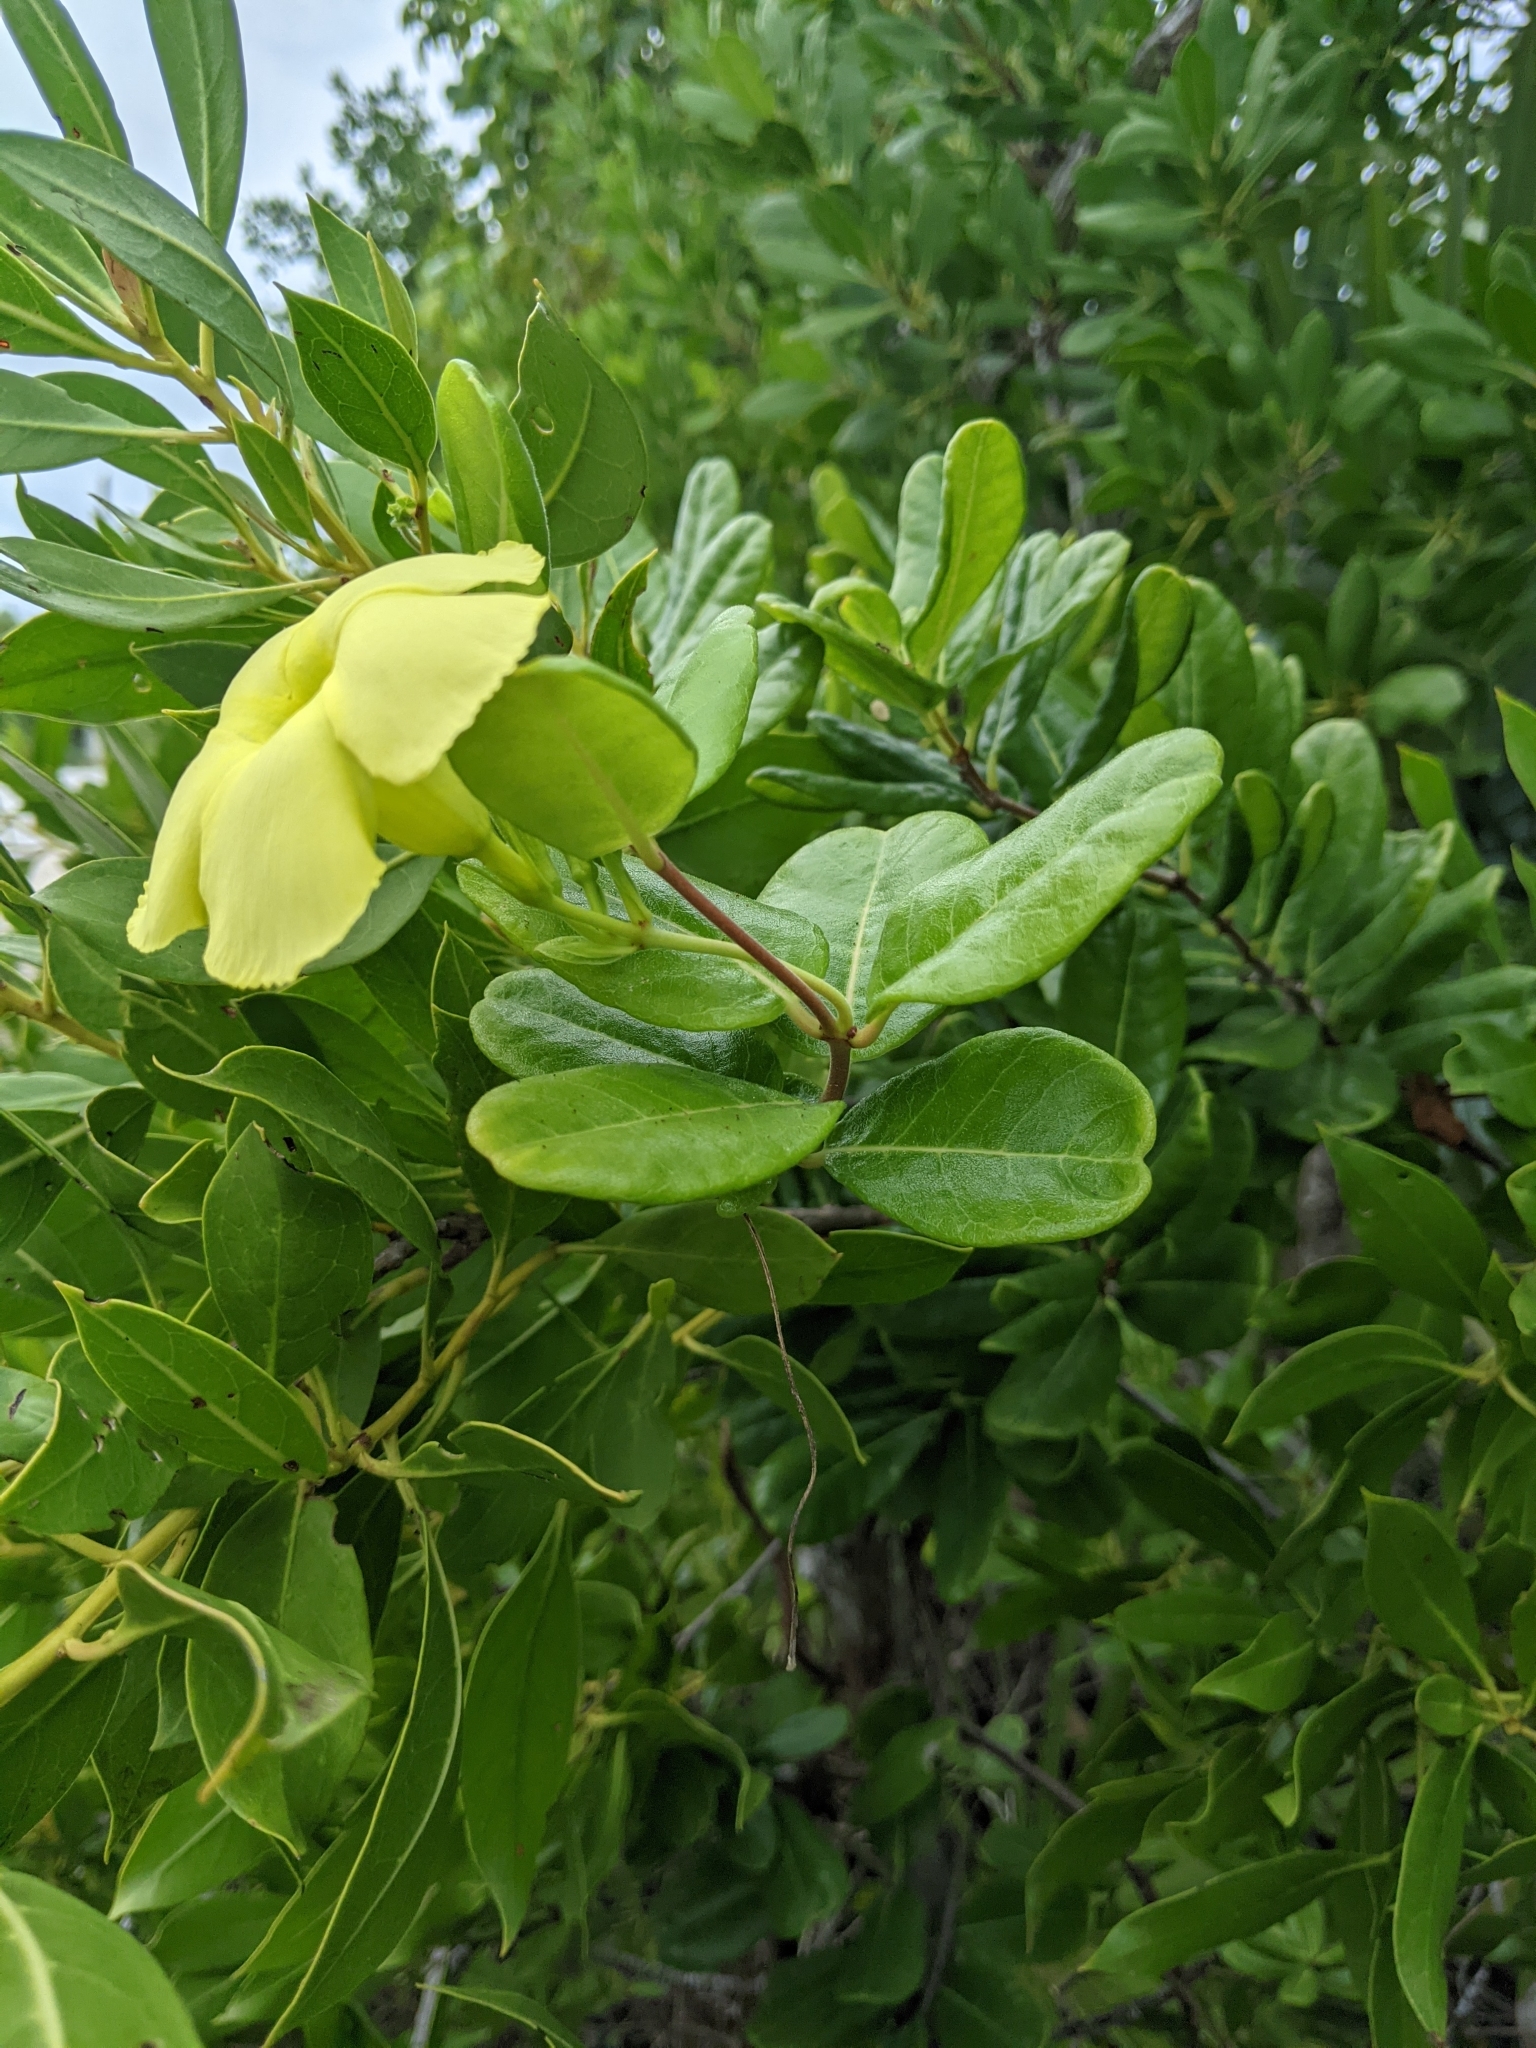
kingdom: Plantae
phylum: Tracheophyta
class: Magnoliopsida
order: Gentianales
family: Apocynaceae
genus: Pentalinon
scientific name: Pentalinon luteum
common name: Licebush
